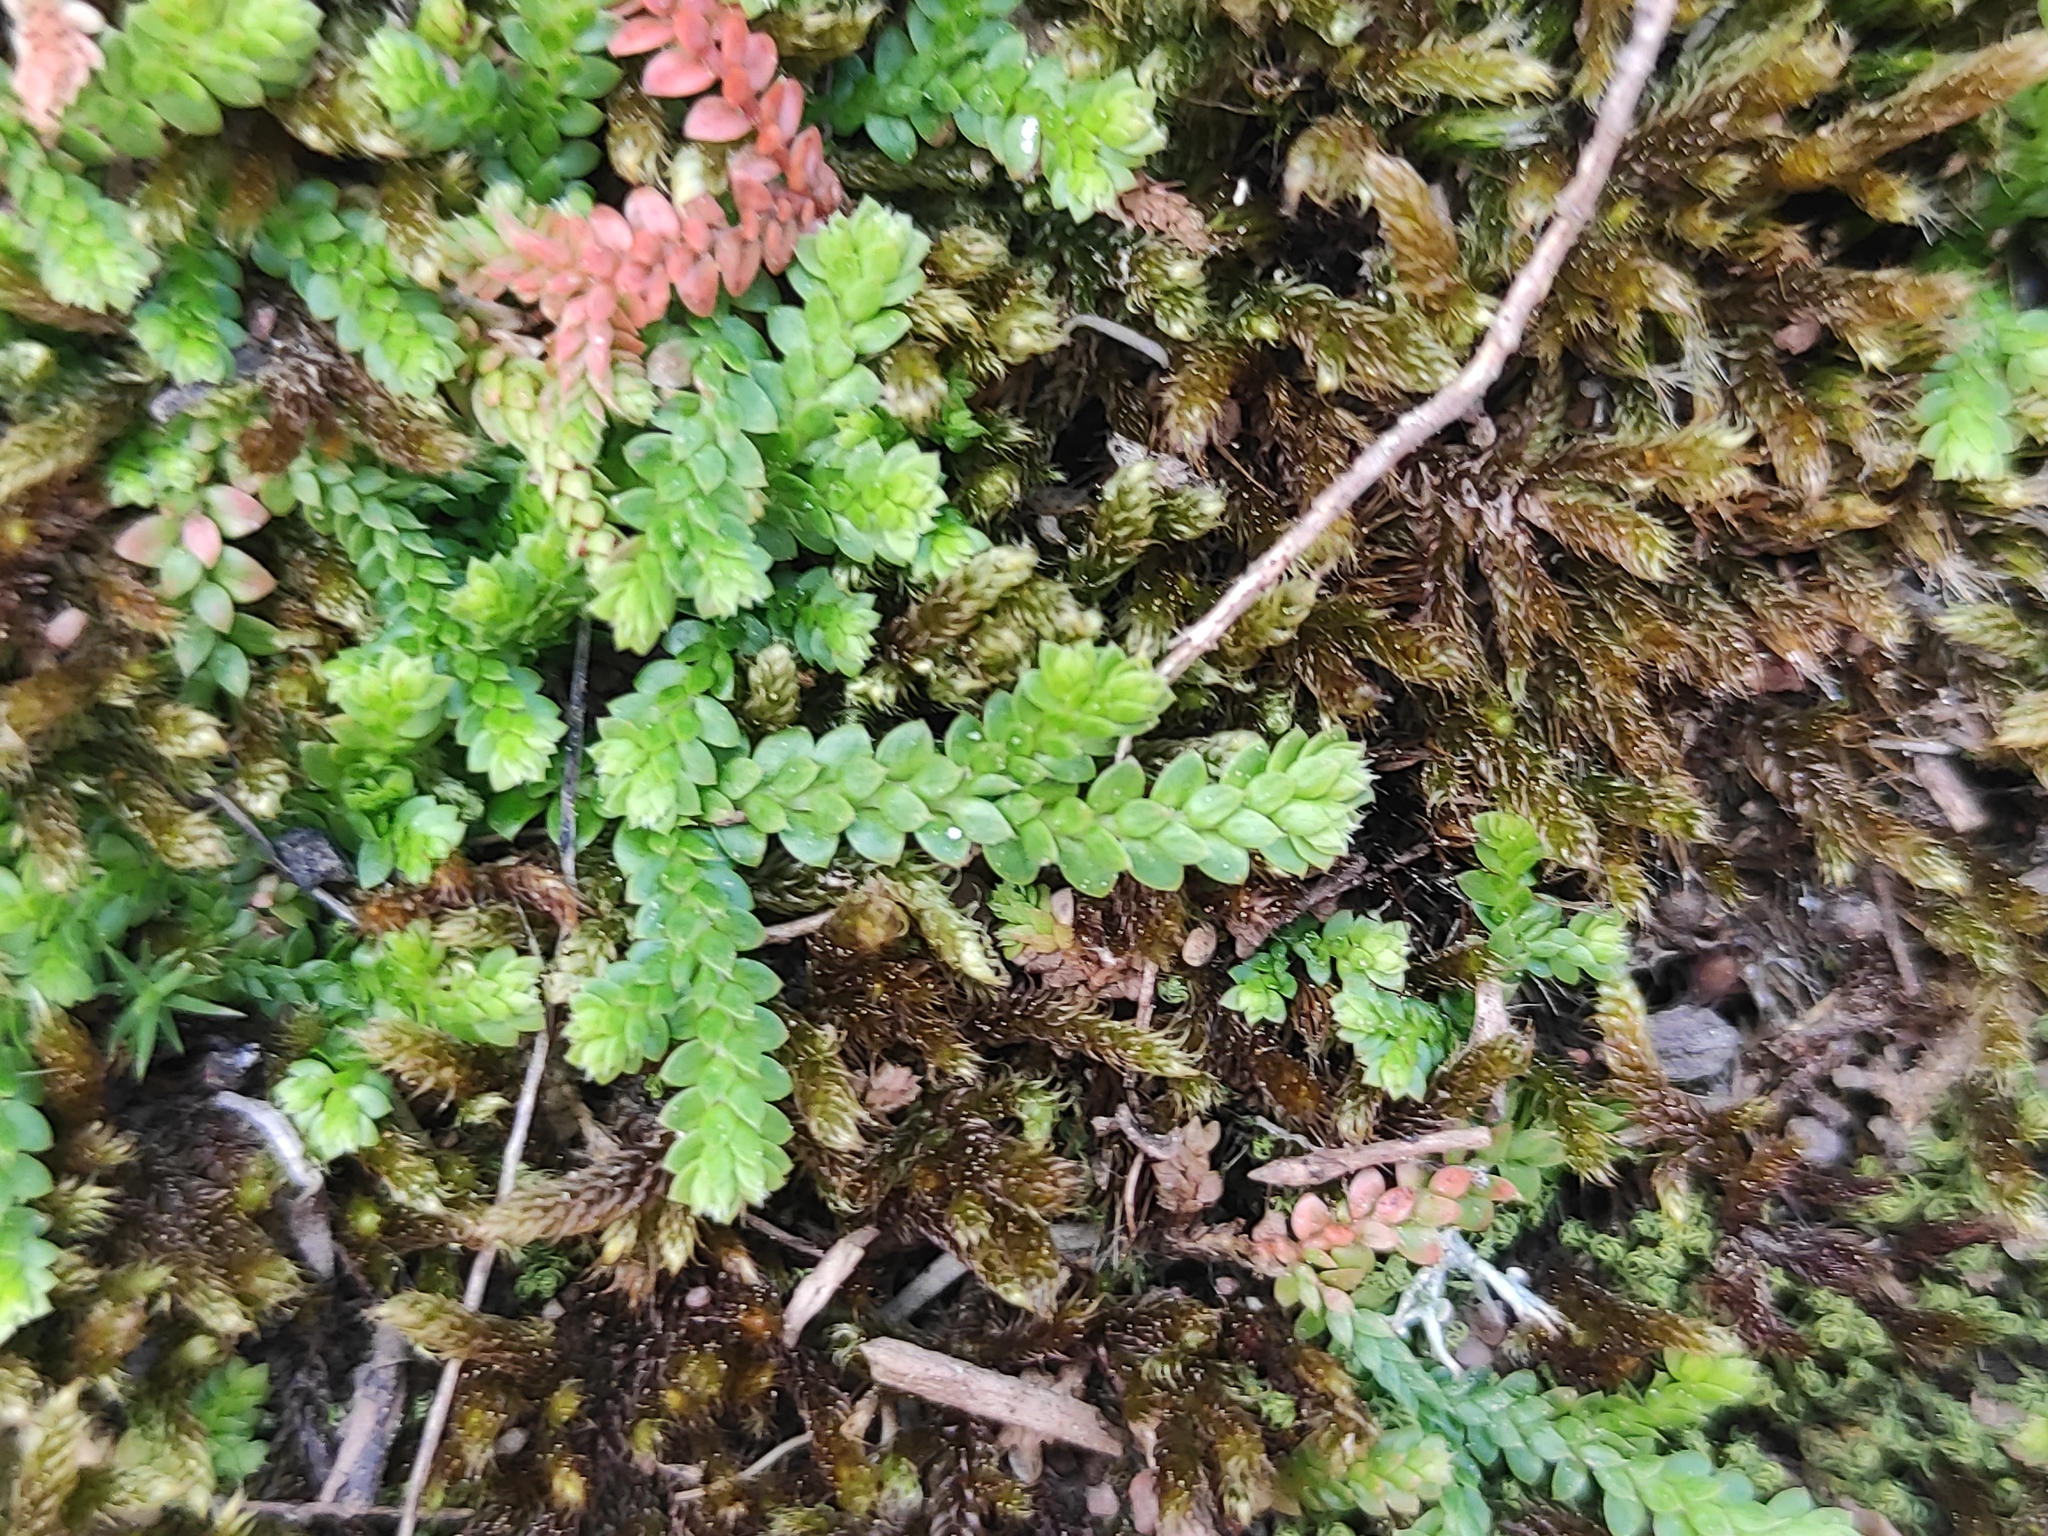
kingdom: Plantae
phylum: Tracheophyta
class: Lycopodiopsida
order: Selaginellales
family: Selaginellaceae
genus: Selaginella
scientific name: Selaginella denticulata
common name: Toothed-leaved clubmoss
